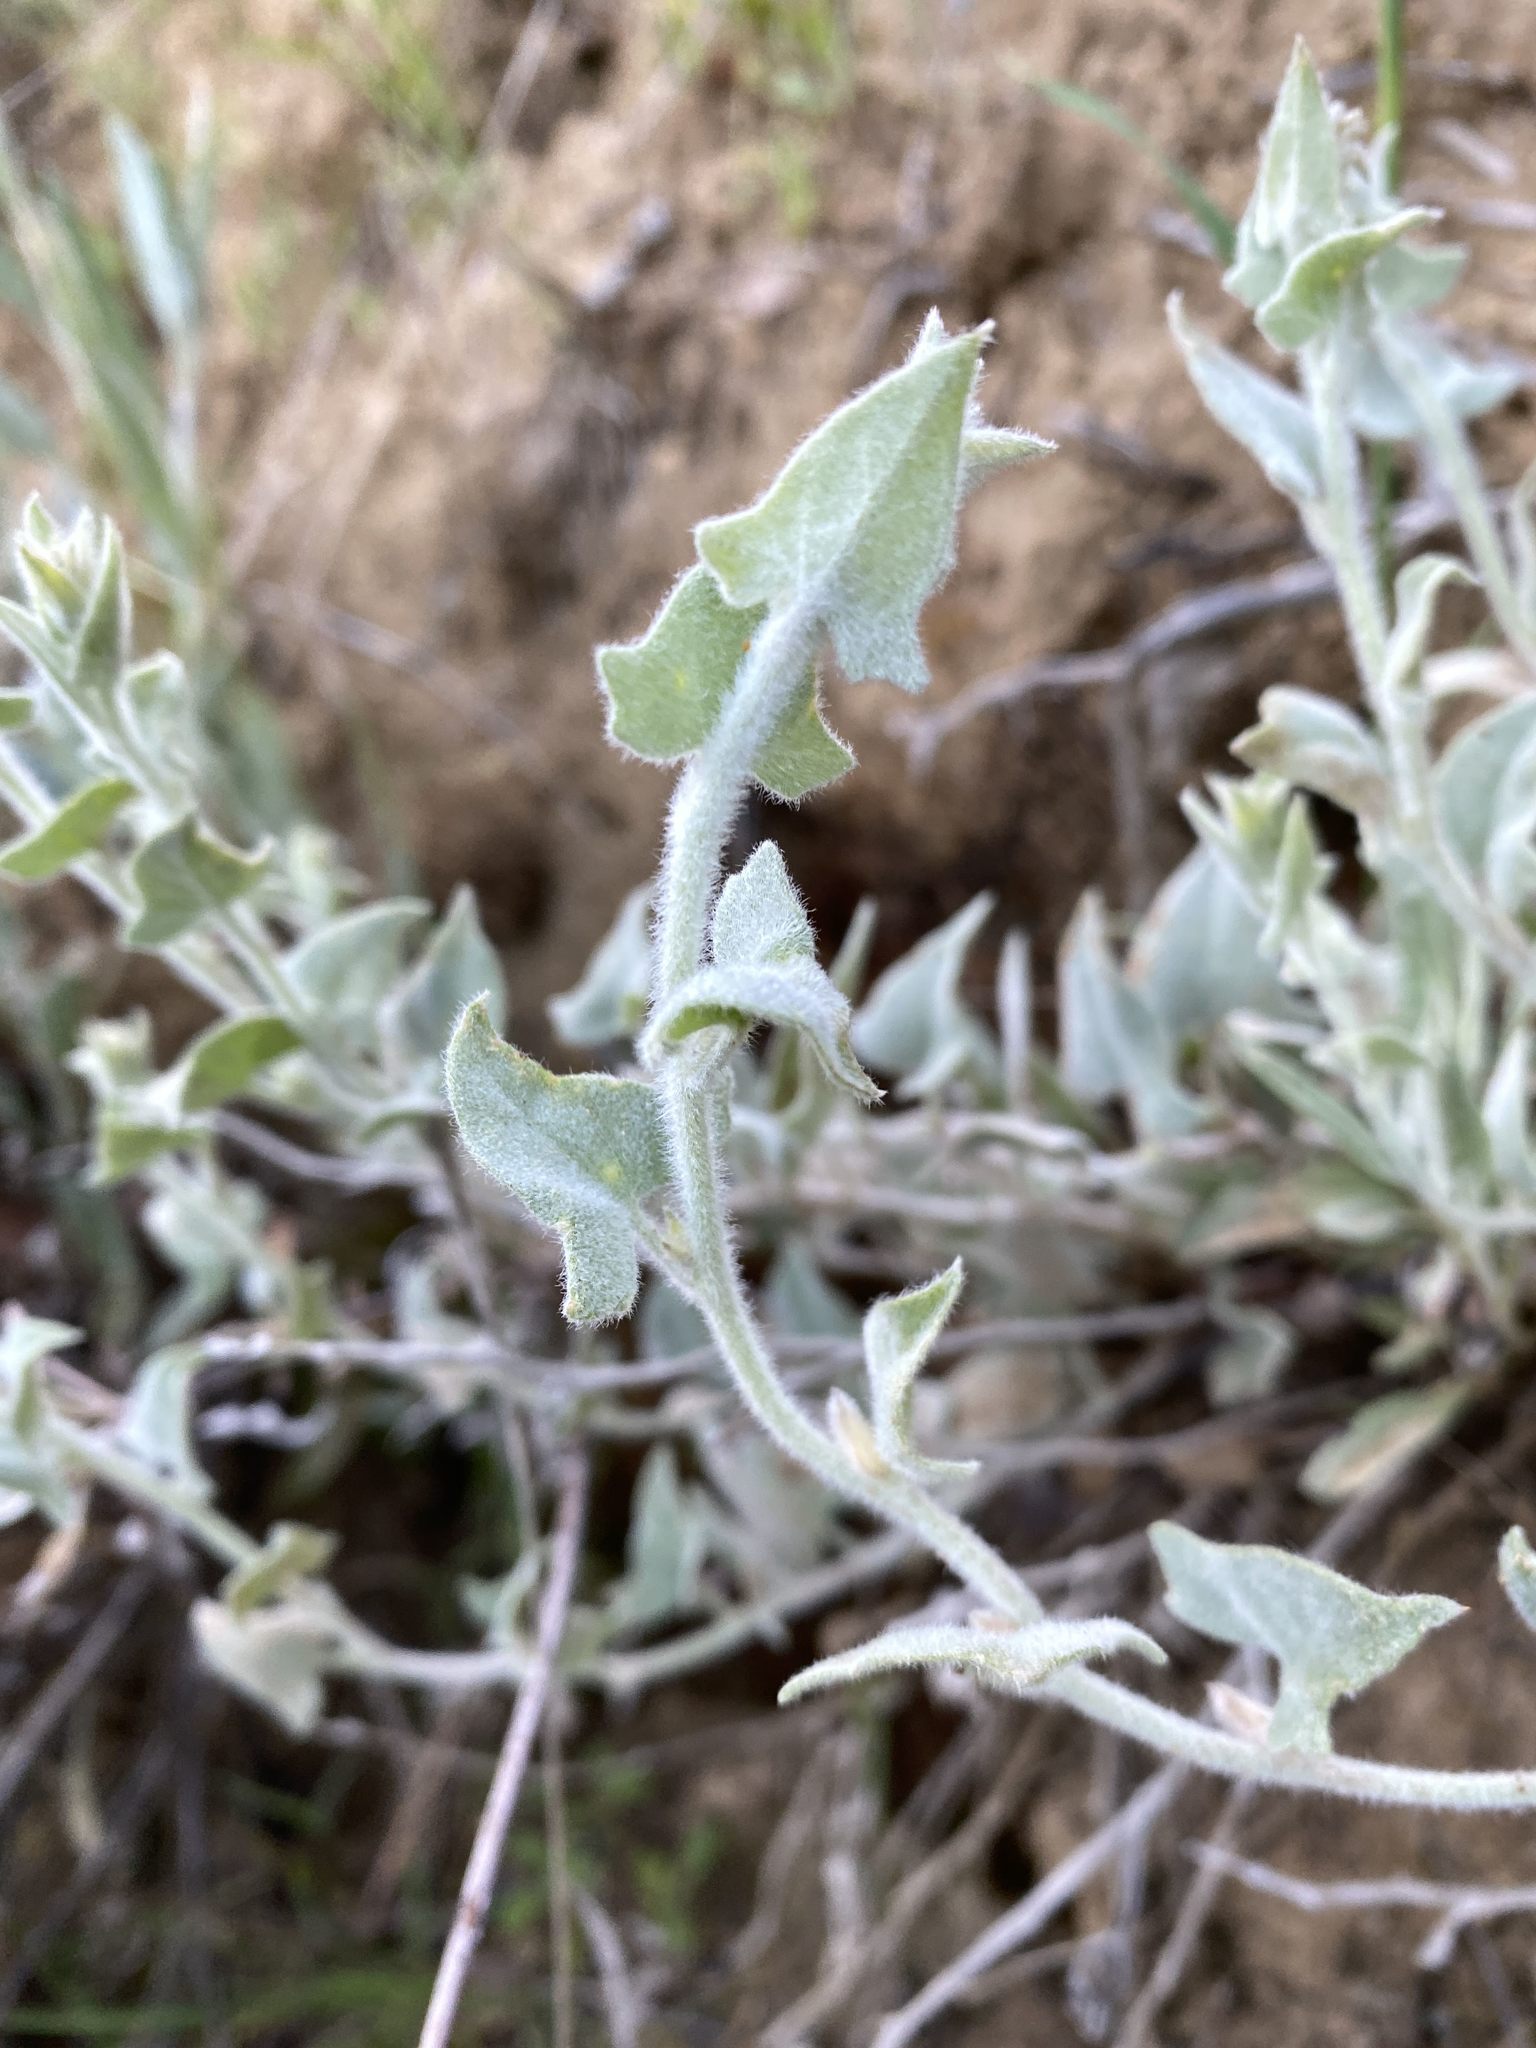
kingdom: Plantae
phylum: Tracheophyta
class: Magnoliopsida
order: Solanales
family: Convolvulaceae
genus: Calystegia
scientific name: Calystegia malacophylla
